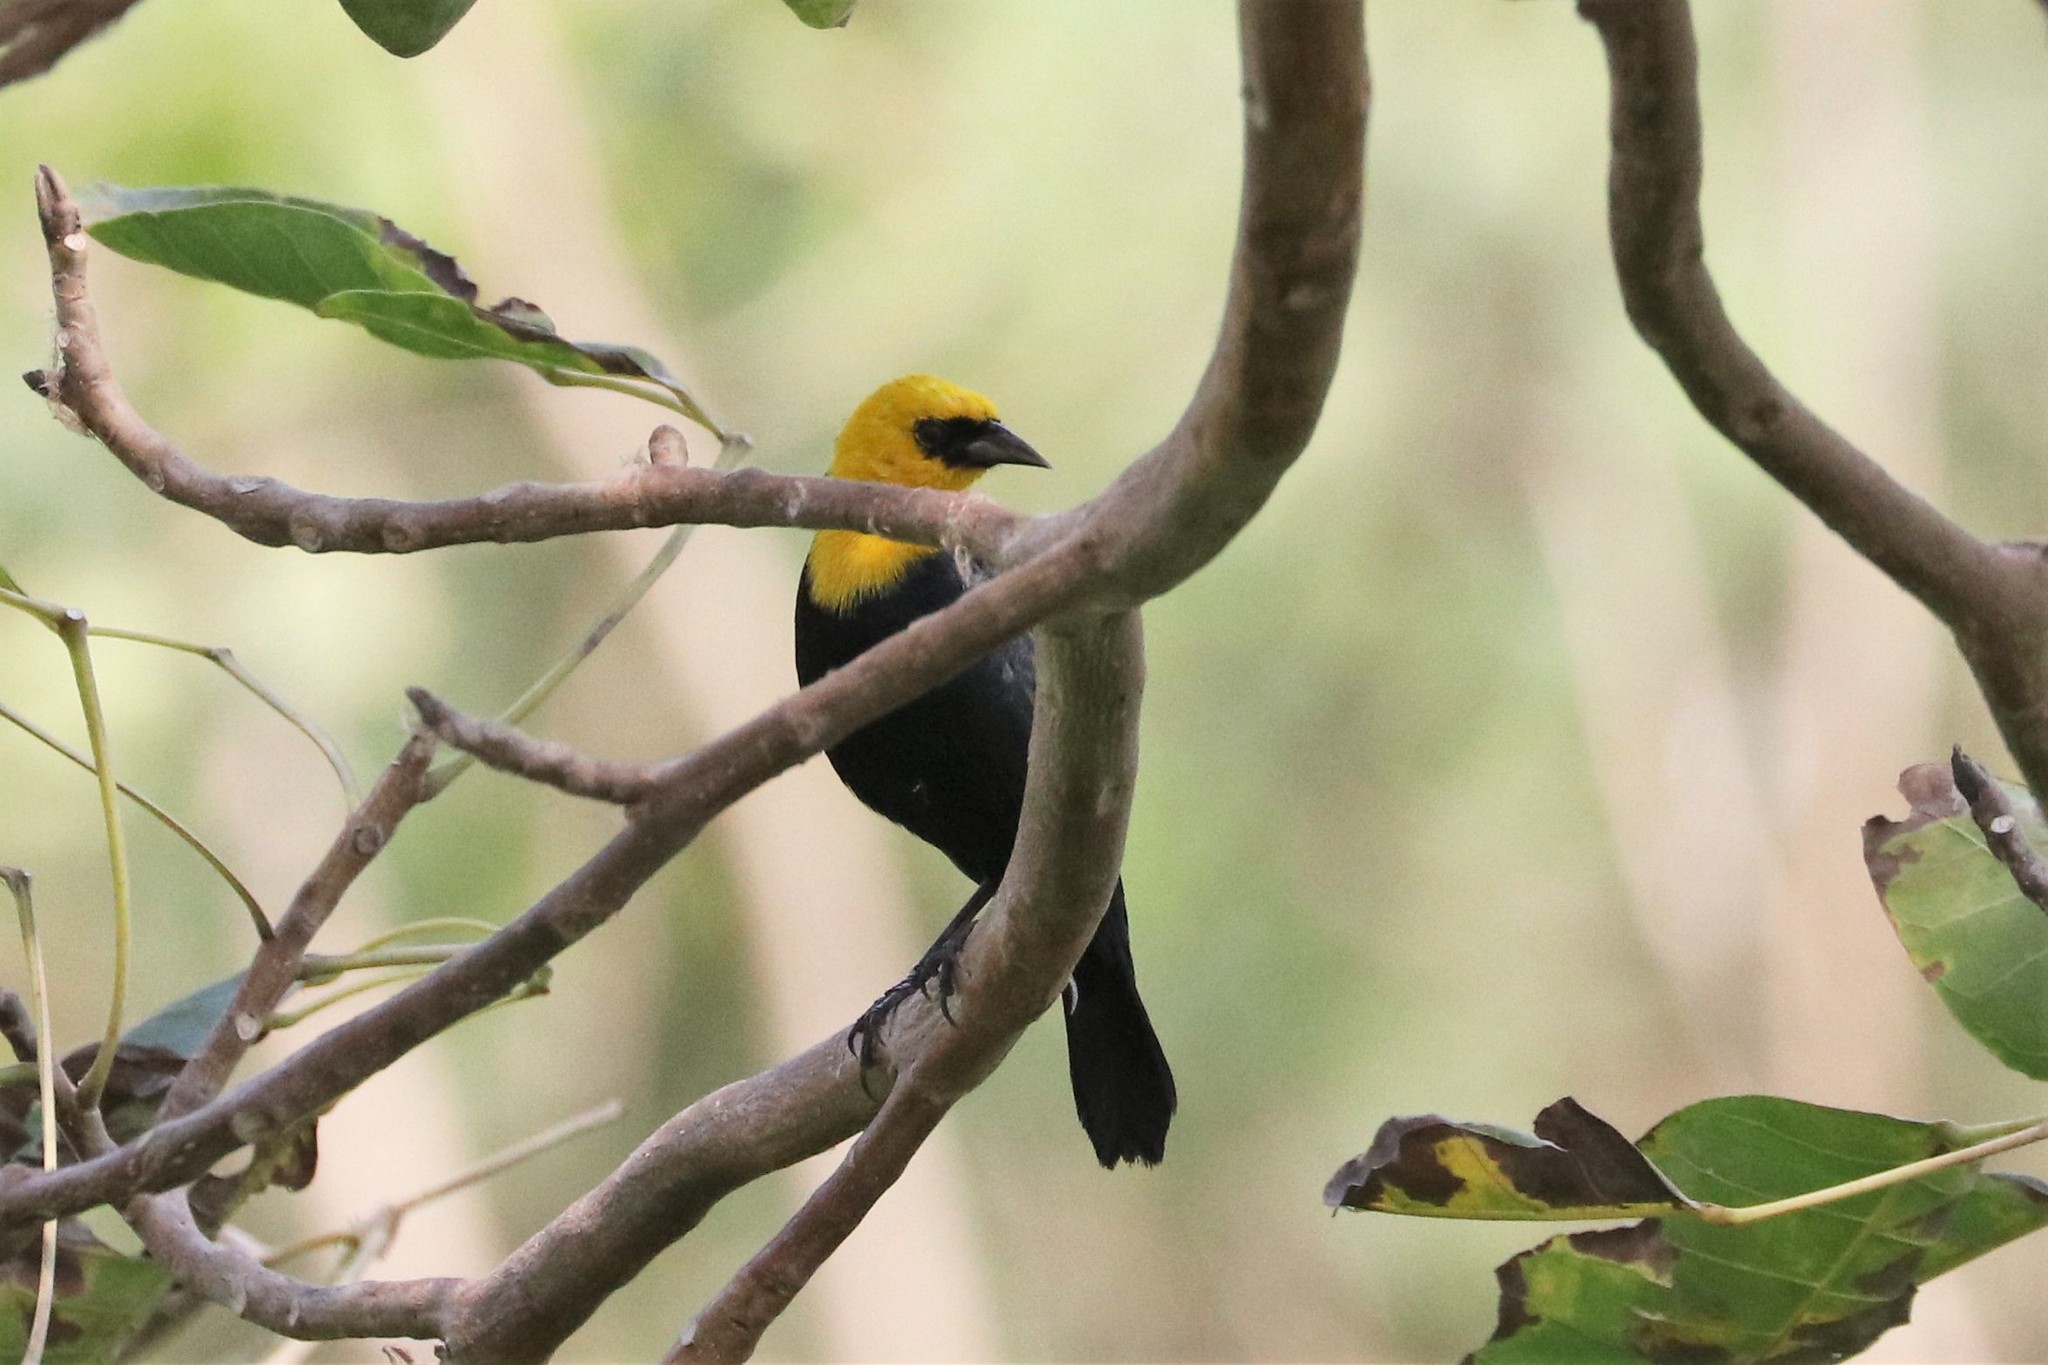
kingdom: Animalia
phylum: Chordata
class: Aves
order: Passeriformes
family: Icteridae
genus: Chrysomus
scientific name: Chrysomus icterocephalus
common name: Yellow-hooded blackbird
